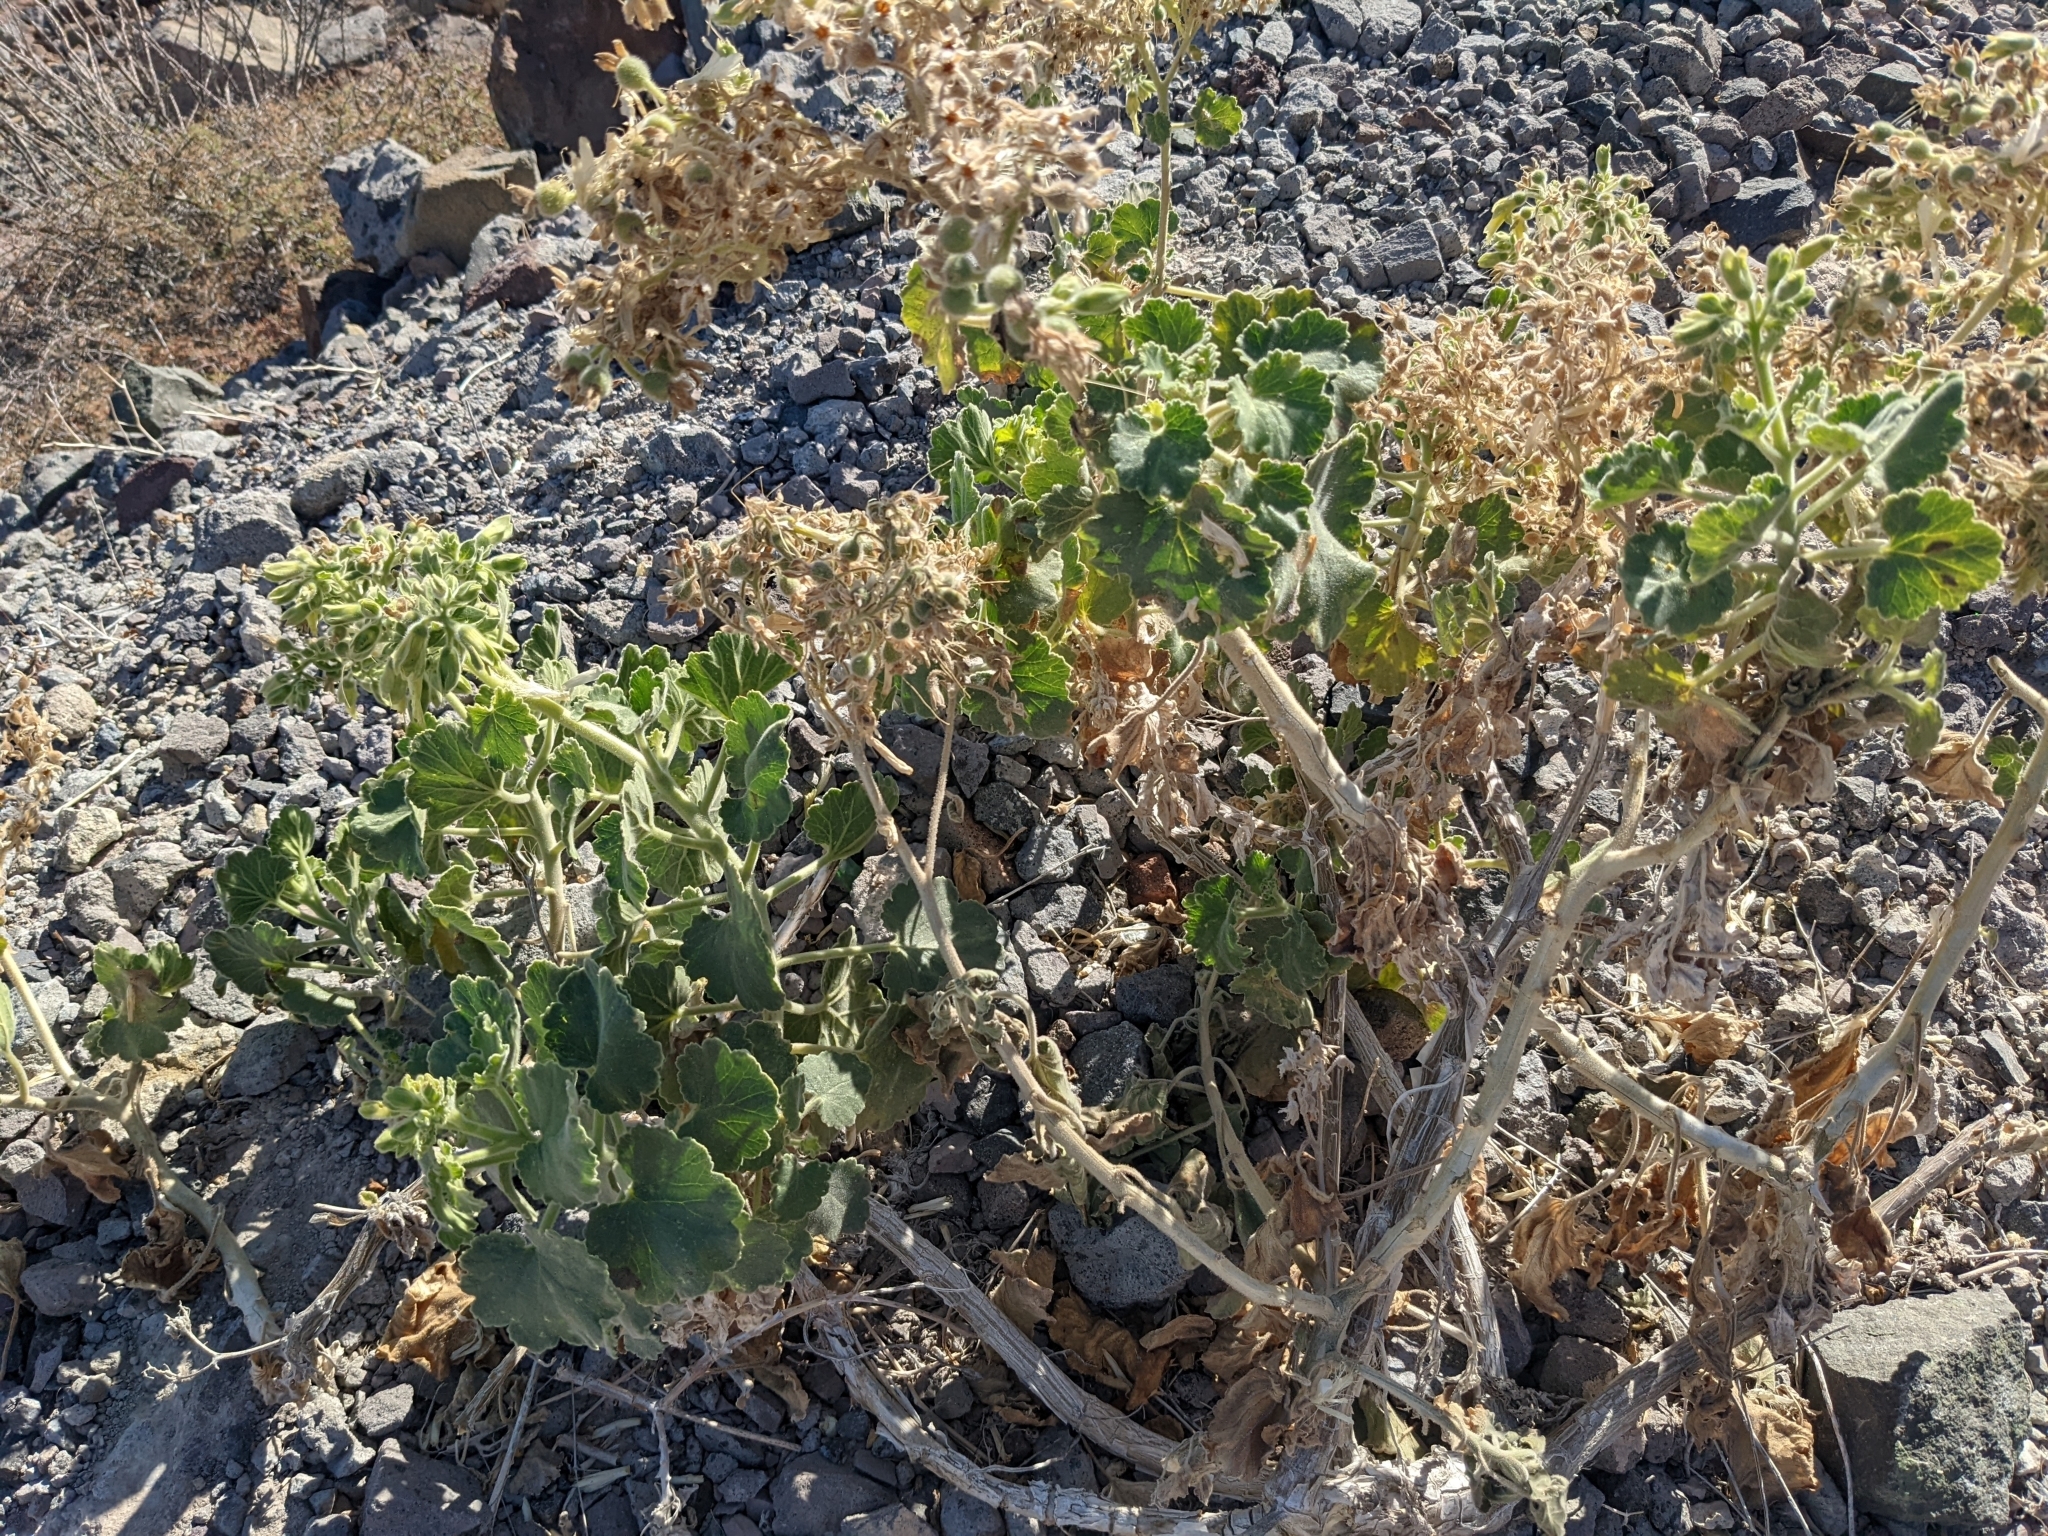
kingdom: Plantae
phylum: Tracheophyta
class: Magnoliopsida
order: Cornales
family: Loasaceae
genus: Eucnide
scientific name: Eucnide cordata
